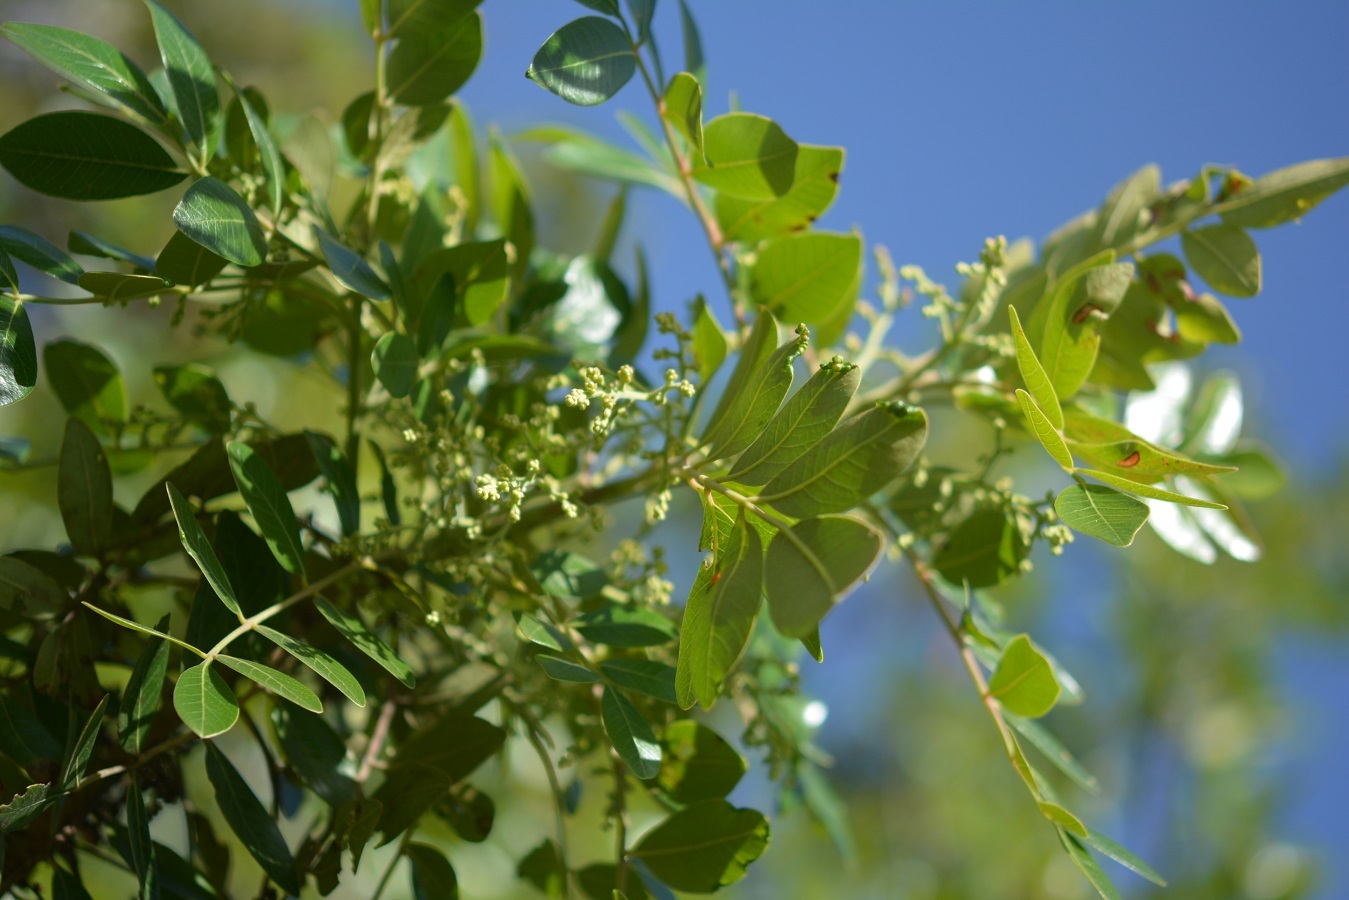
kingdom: Plantae
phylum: Tracheophyta
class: Magnoliopsida
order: Sapindales
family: Anacardiaceae
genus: Rhus
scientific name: Rhus schiedeana
